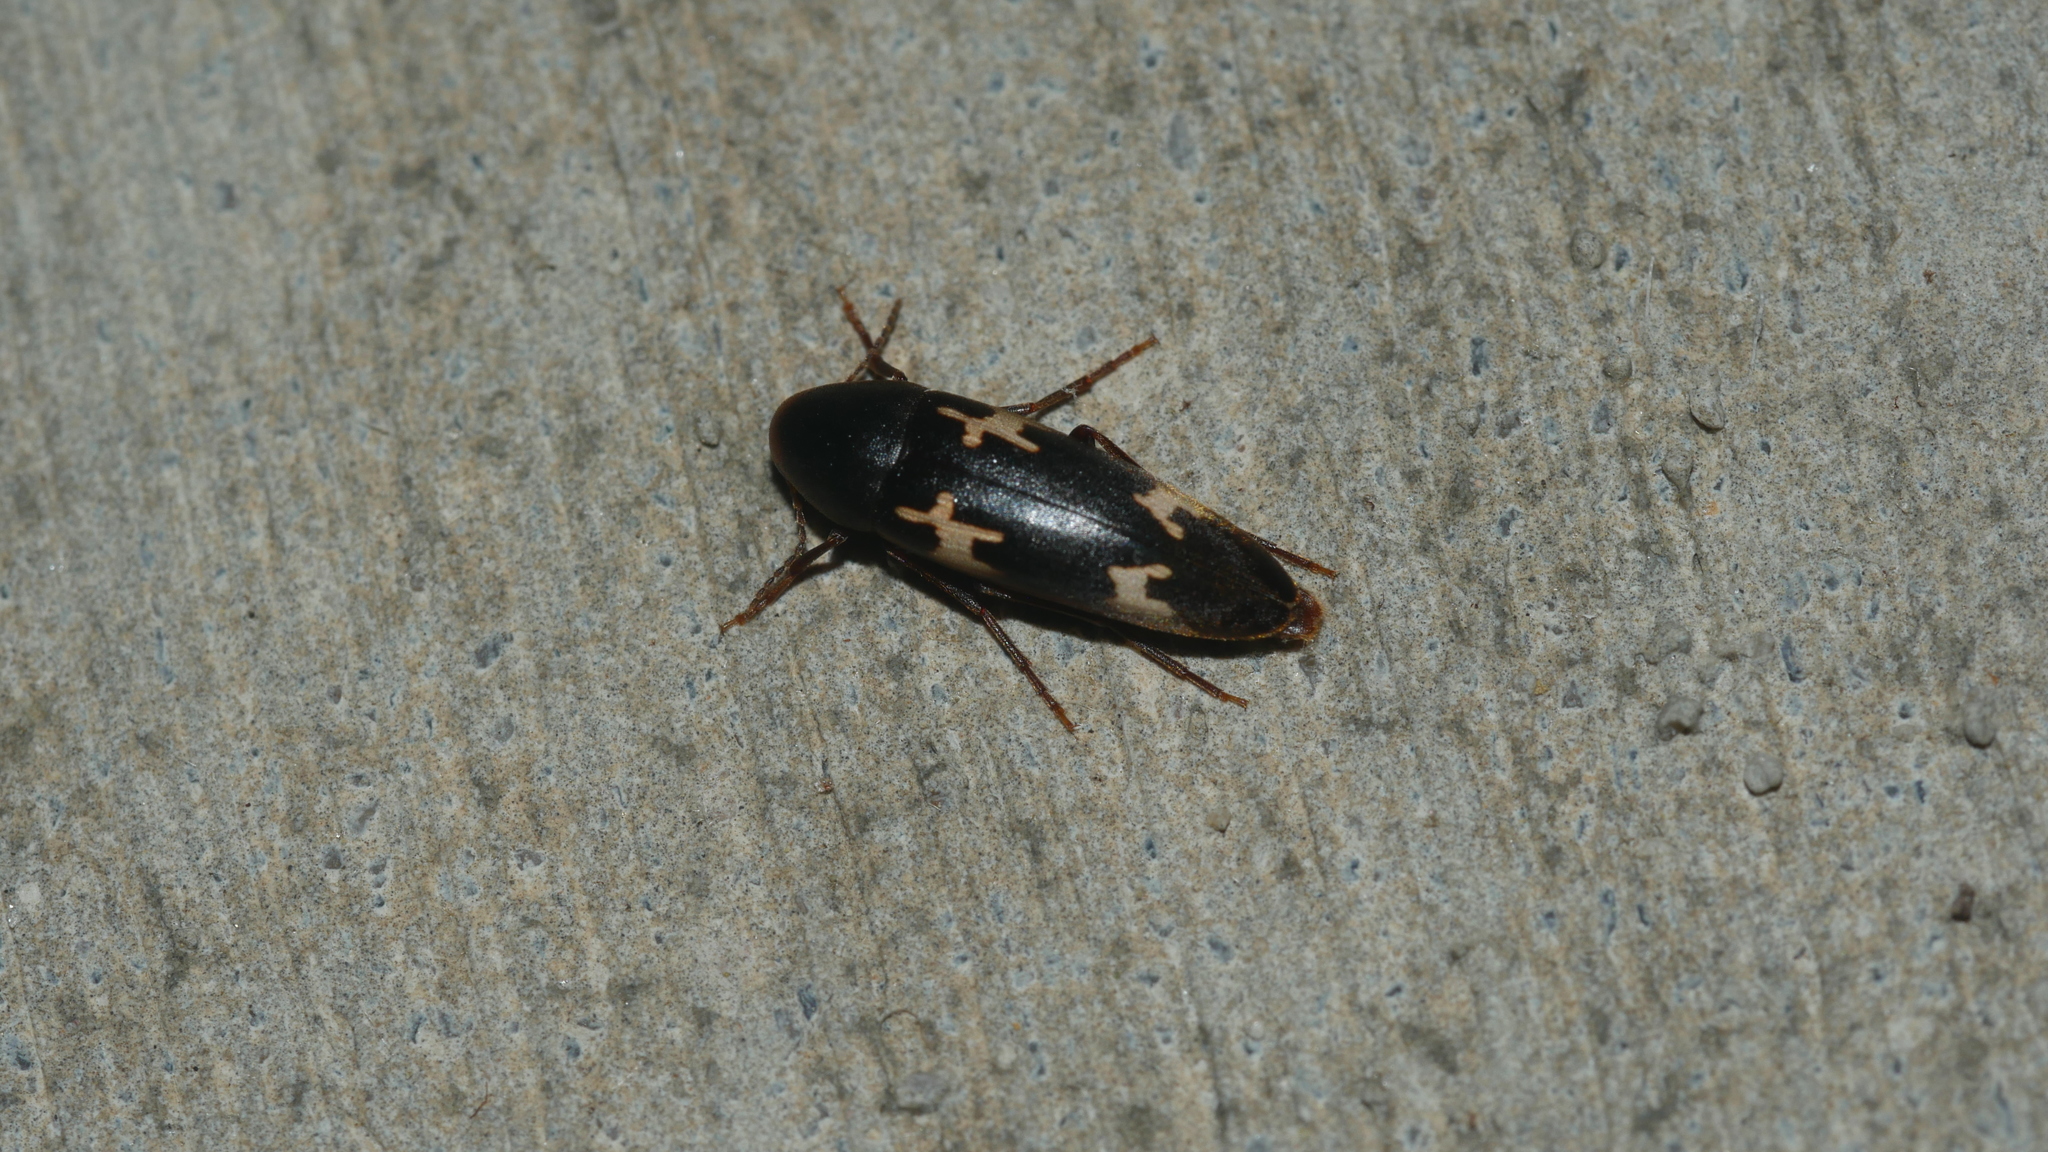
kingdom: Animalia
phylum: Arthropoda
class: Insecta
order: Coleoptera
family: Melandryidae
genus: Dircaea
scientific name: Dircaea liturata
